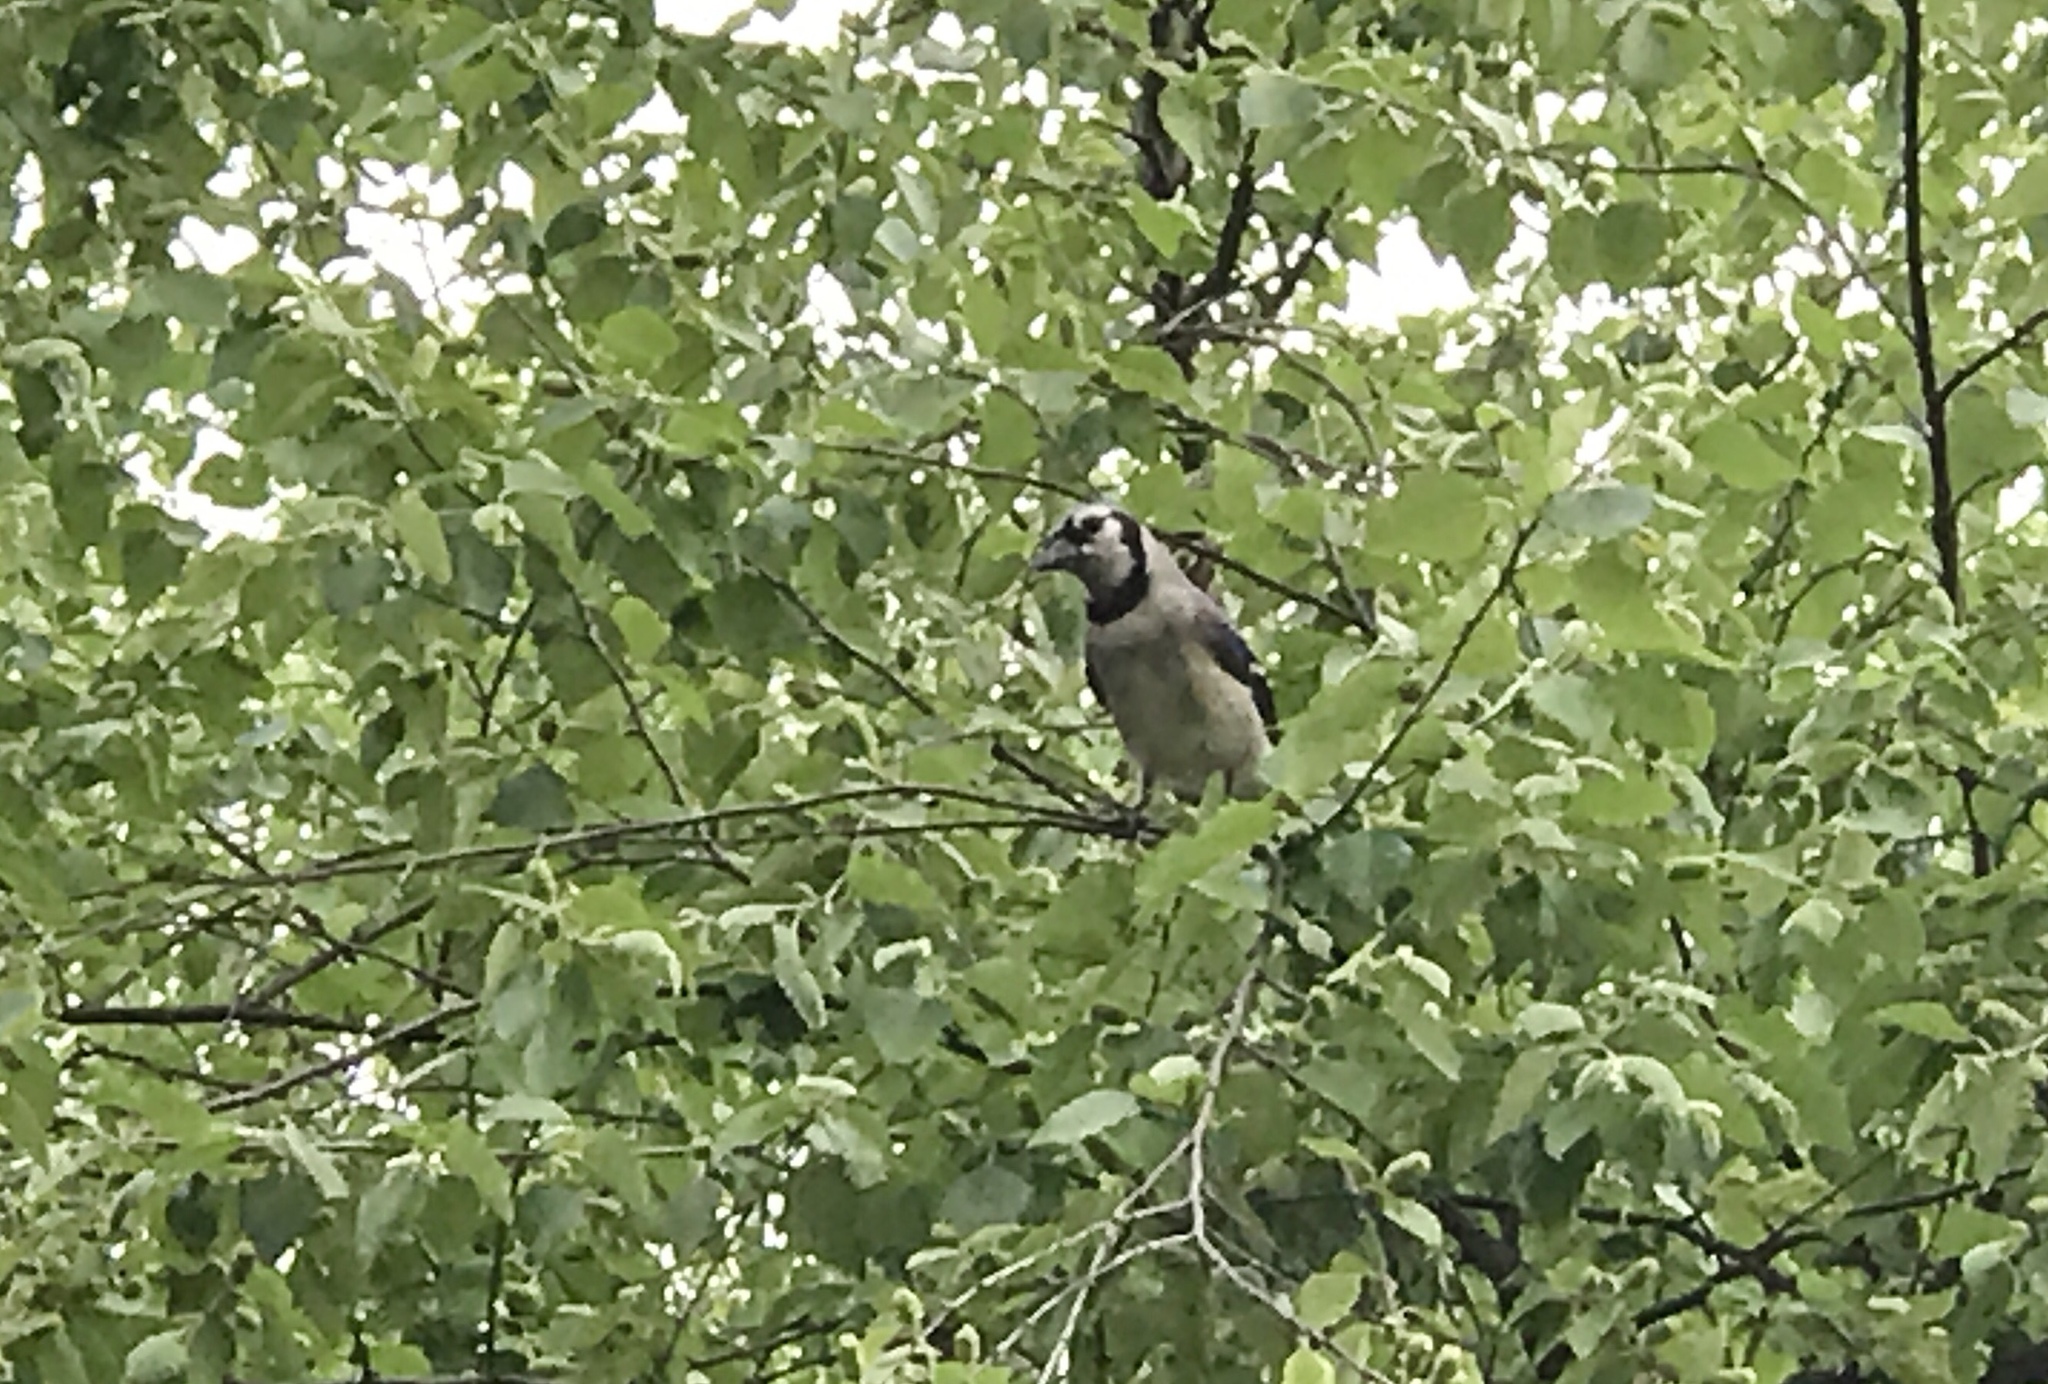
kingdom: Animalia
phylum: Chordata
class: Aves
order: Passeriformes
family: Corvidae
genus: Cyanocitta
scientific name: Cyanocitta cristata
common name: Blue jay
